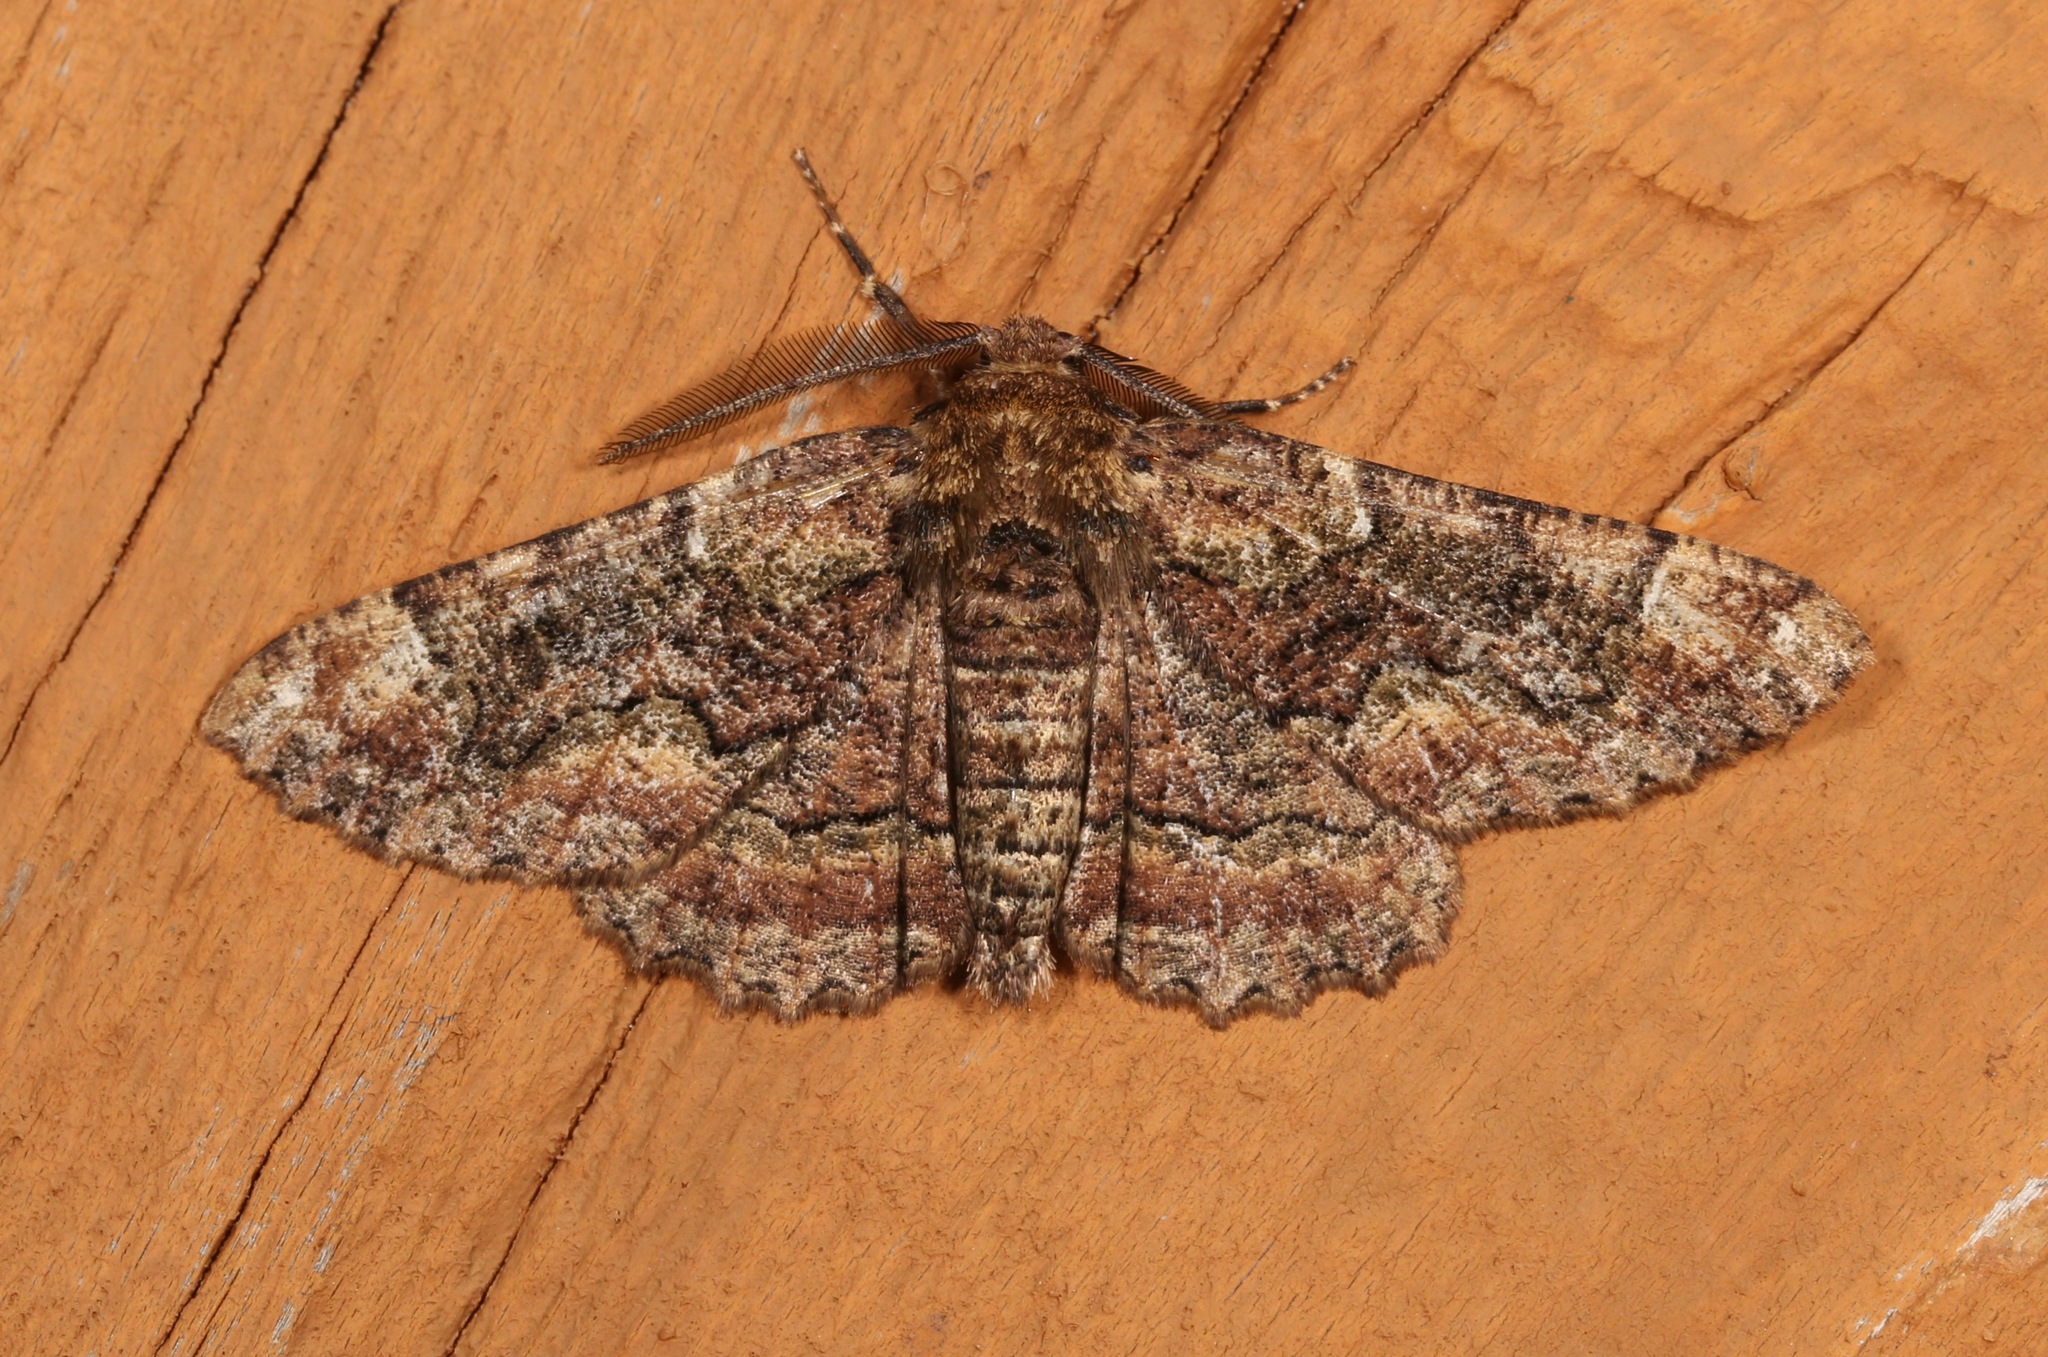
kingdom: Animalia
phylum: Arthropoda
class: Insecta
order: Lepidoptera
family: Geometridae
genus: Phaeoura
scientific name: Phaeoura quernaria
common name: Oak beauty
